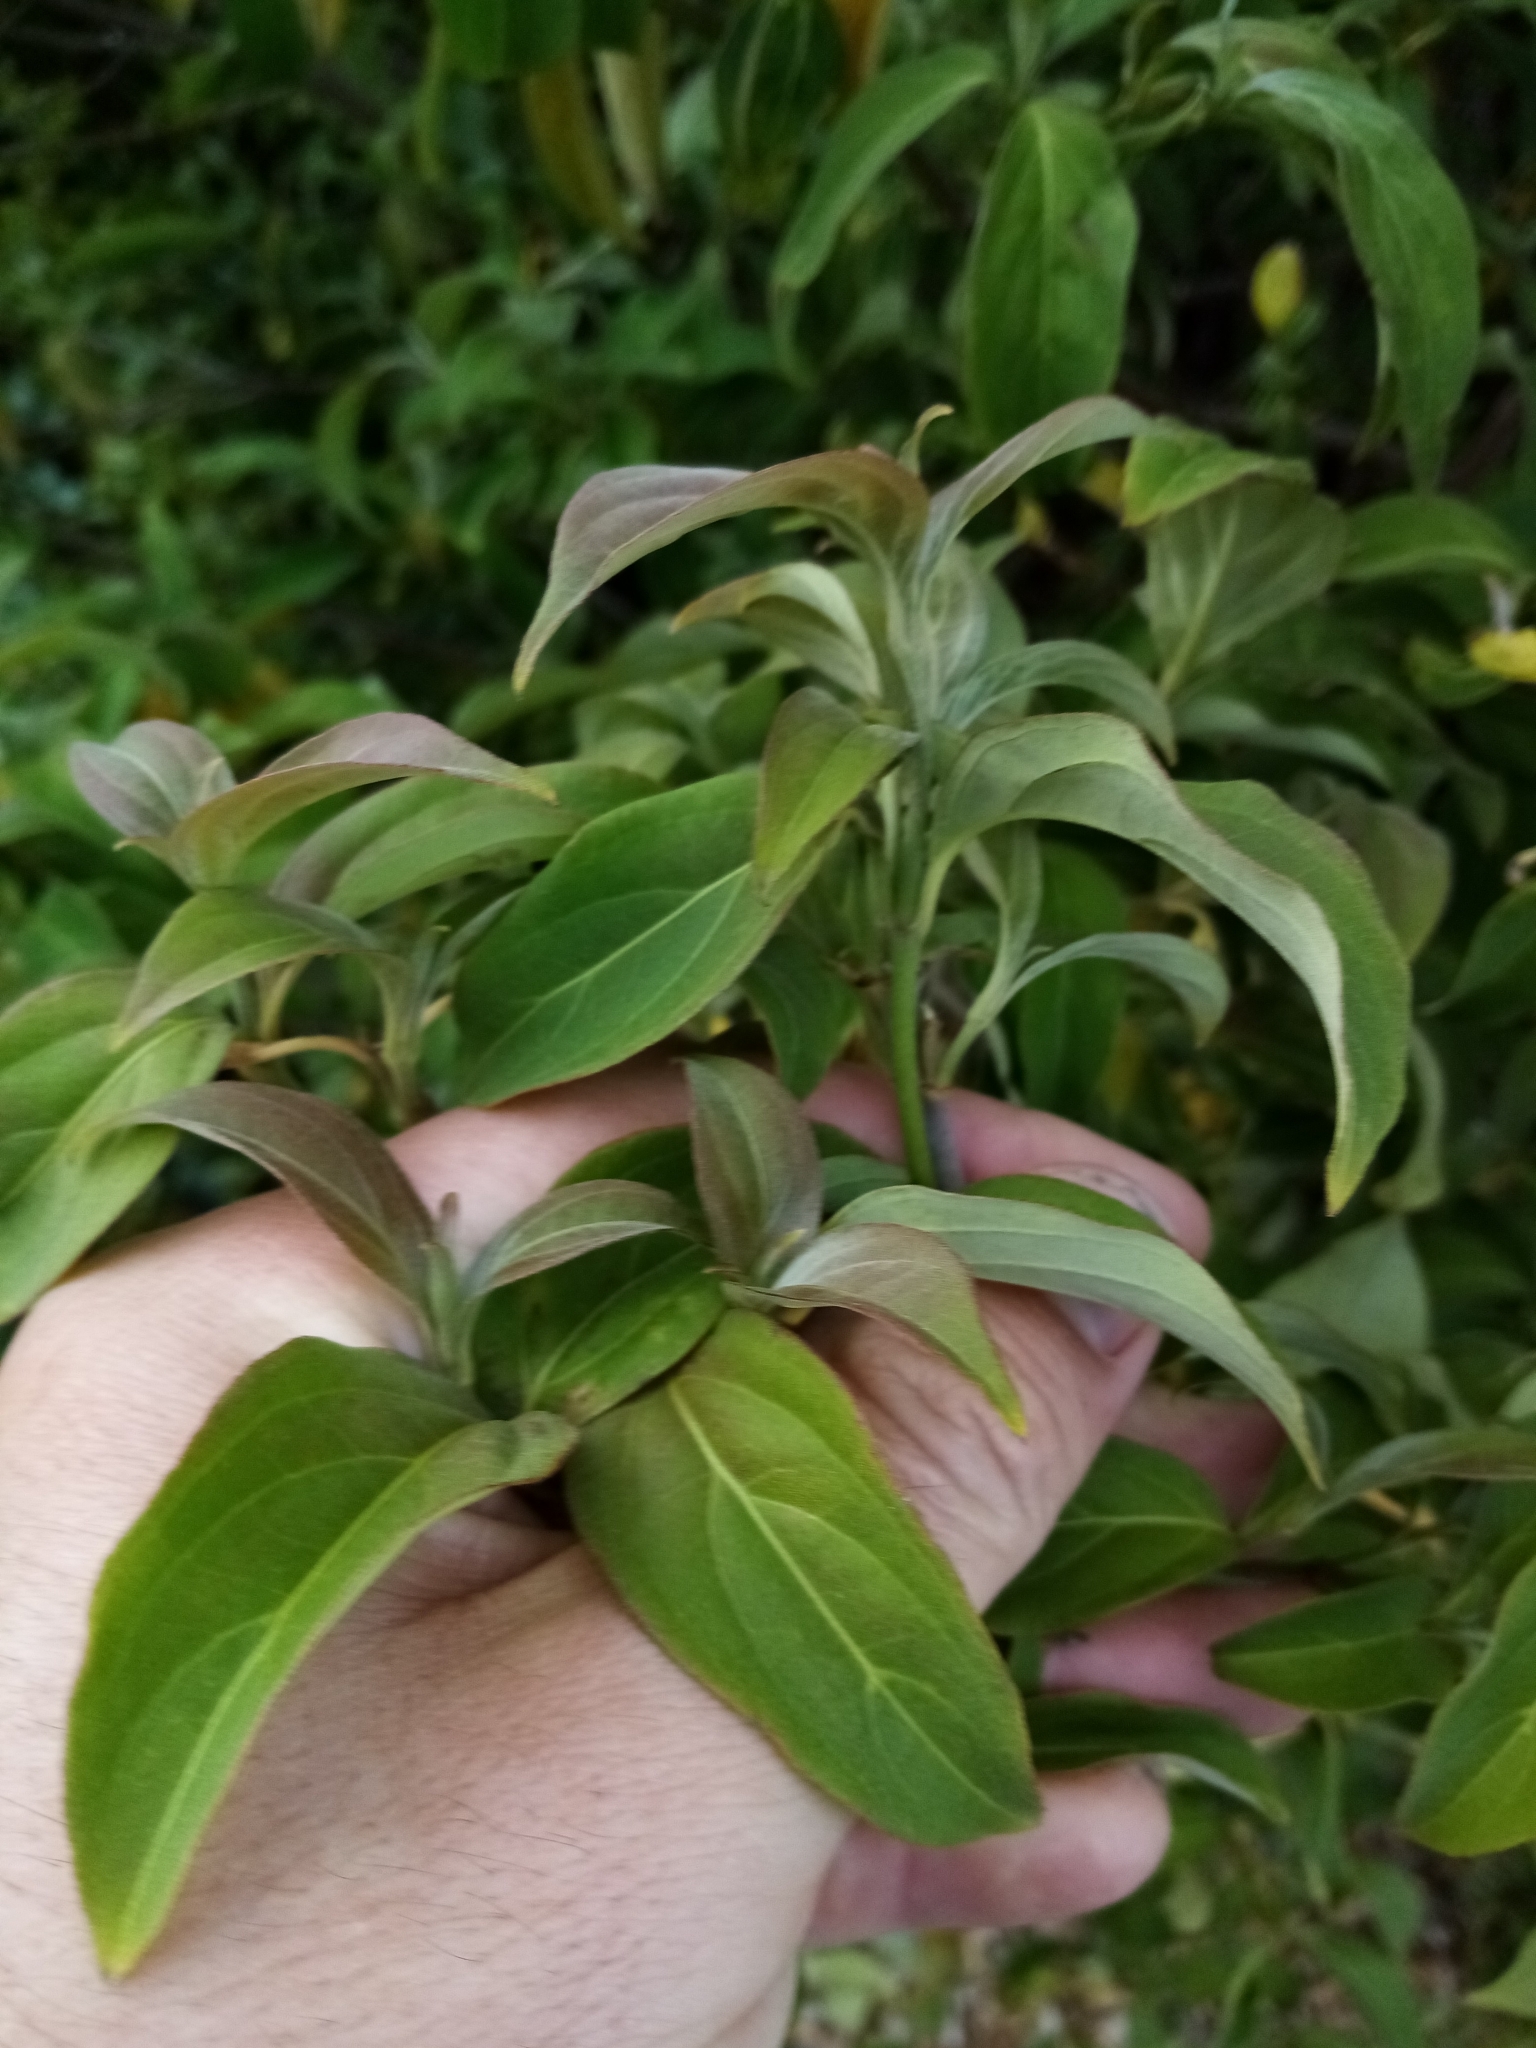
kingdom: Plantae
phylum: Tracheophyta
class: Magnoliopsida
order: Cornales
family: Cornaceae
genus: Cornus
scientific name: Cornus capitata
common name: Bentham's cornel
